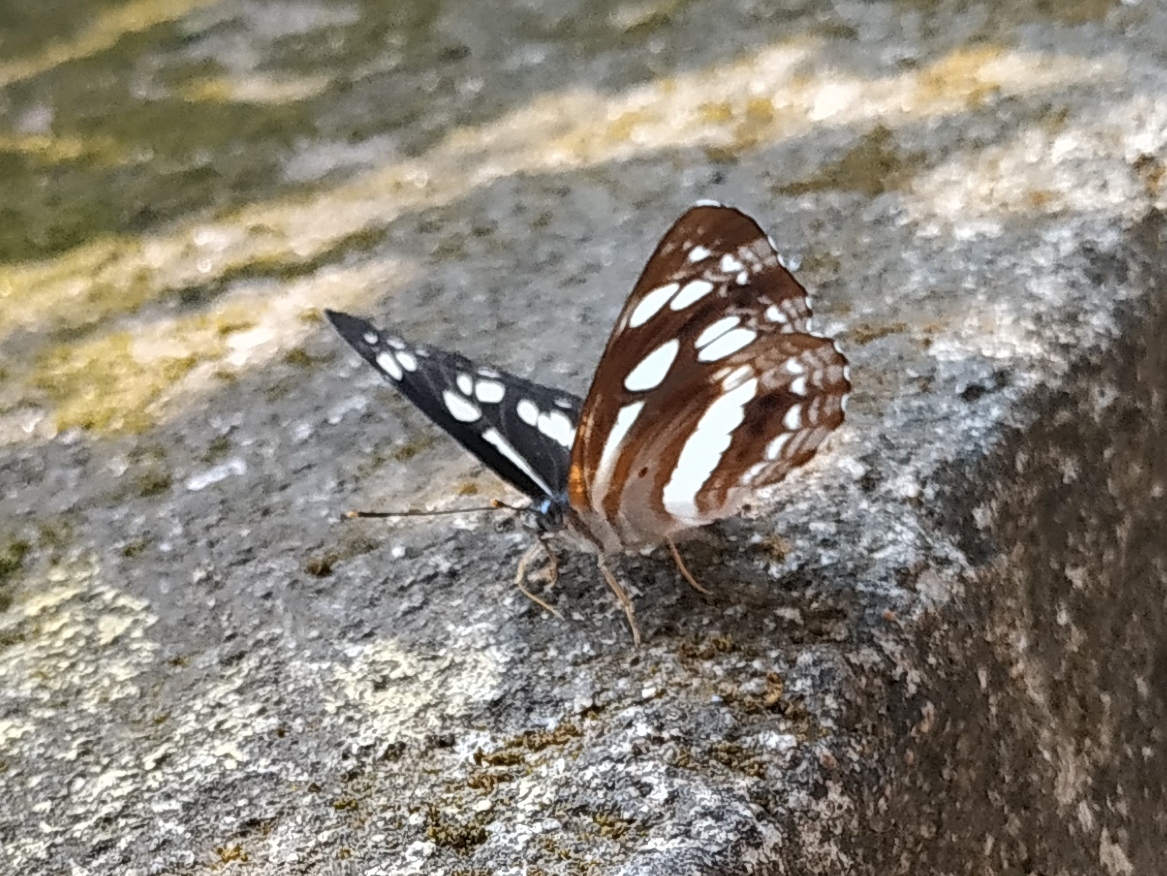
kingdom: Animalia
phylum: Arthropoda
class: Insecta
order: Lepidoptera
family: Nymphalidae
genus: Neptis
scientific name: Neptis jumbah
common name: Chestnut-streaked sailer
